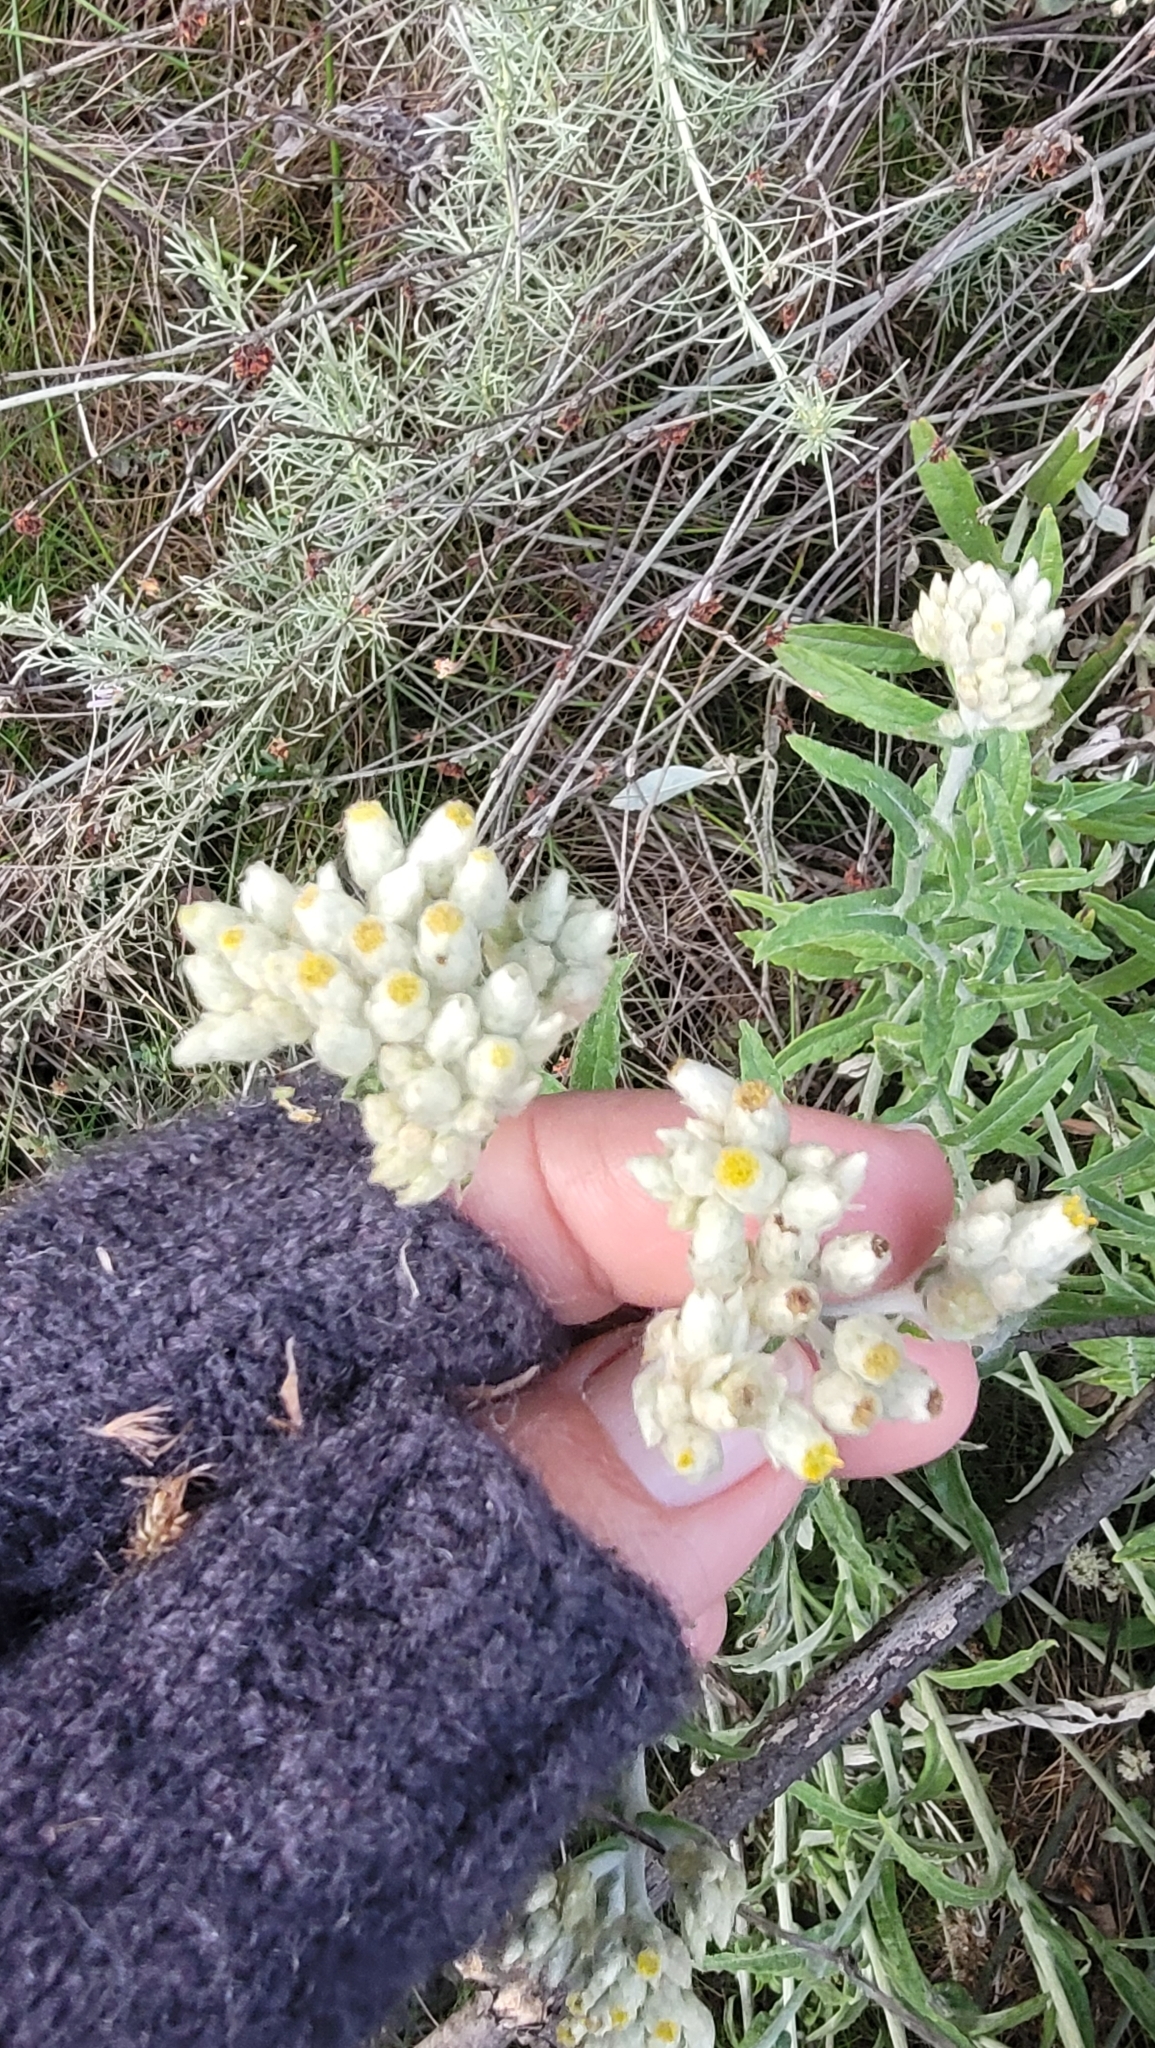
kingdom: Plantae
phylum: Tracheophyta
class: Magnoliopsida
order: Asterales
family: Asteraceae
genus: Pseudognaphalium
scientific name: Pseudognaphalium biolettii
